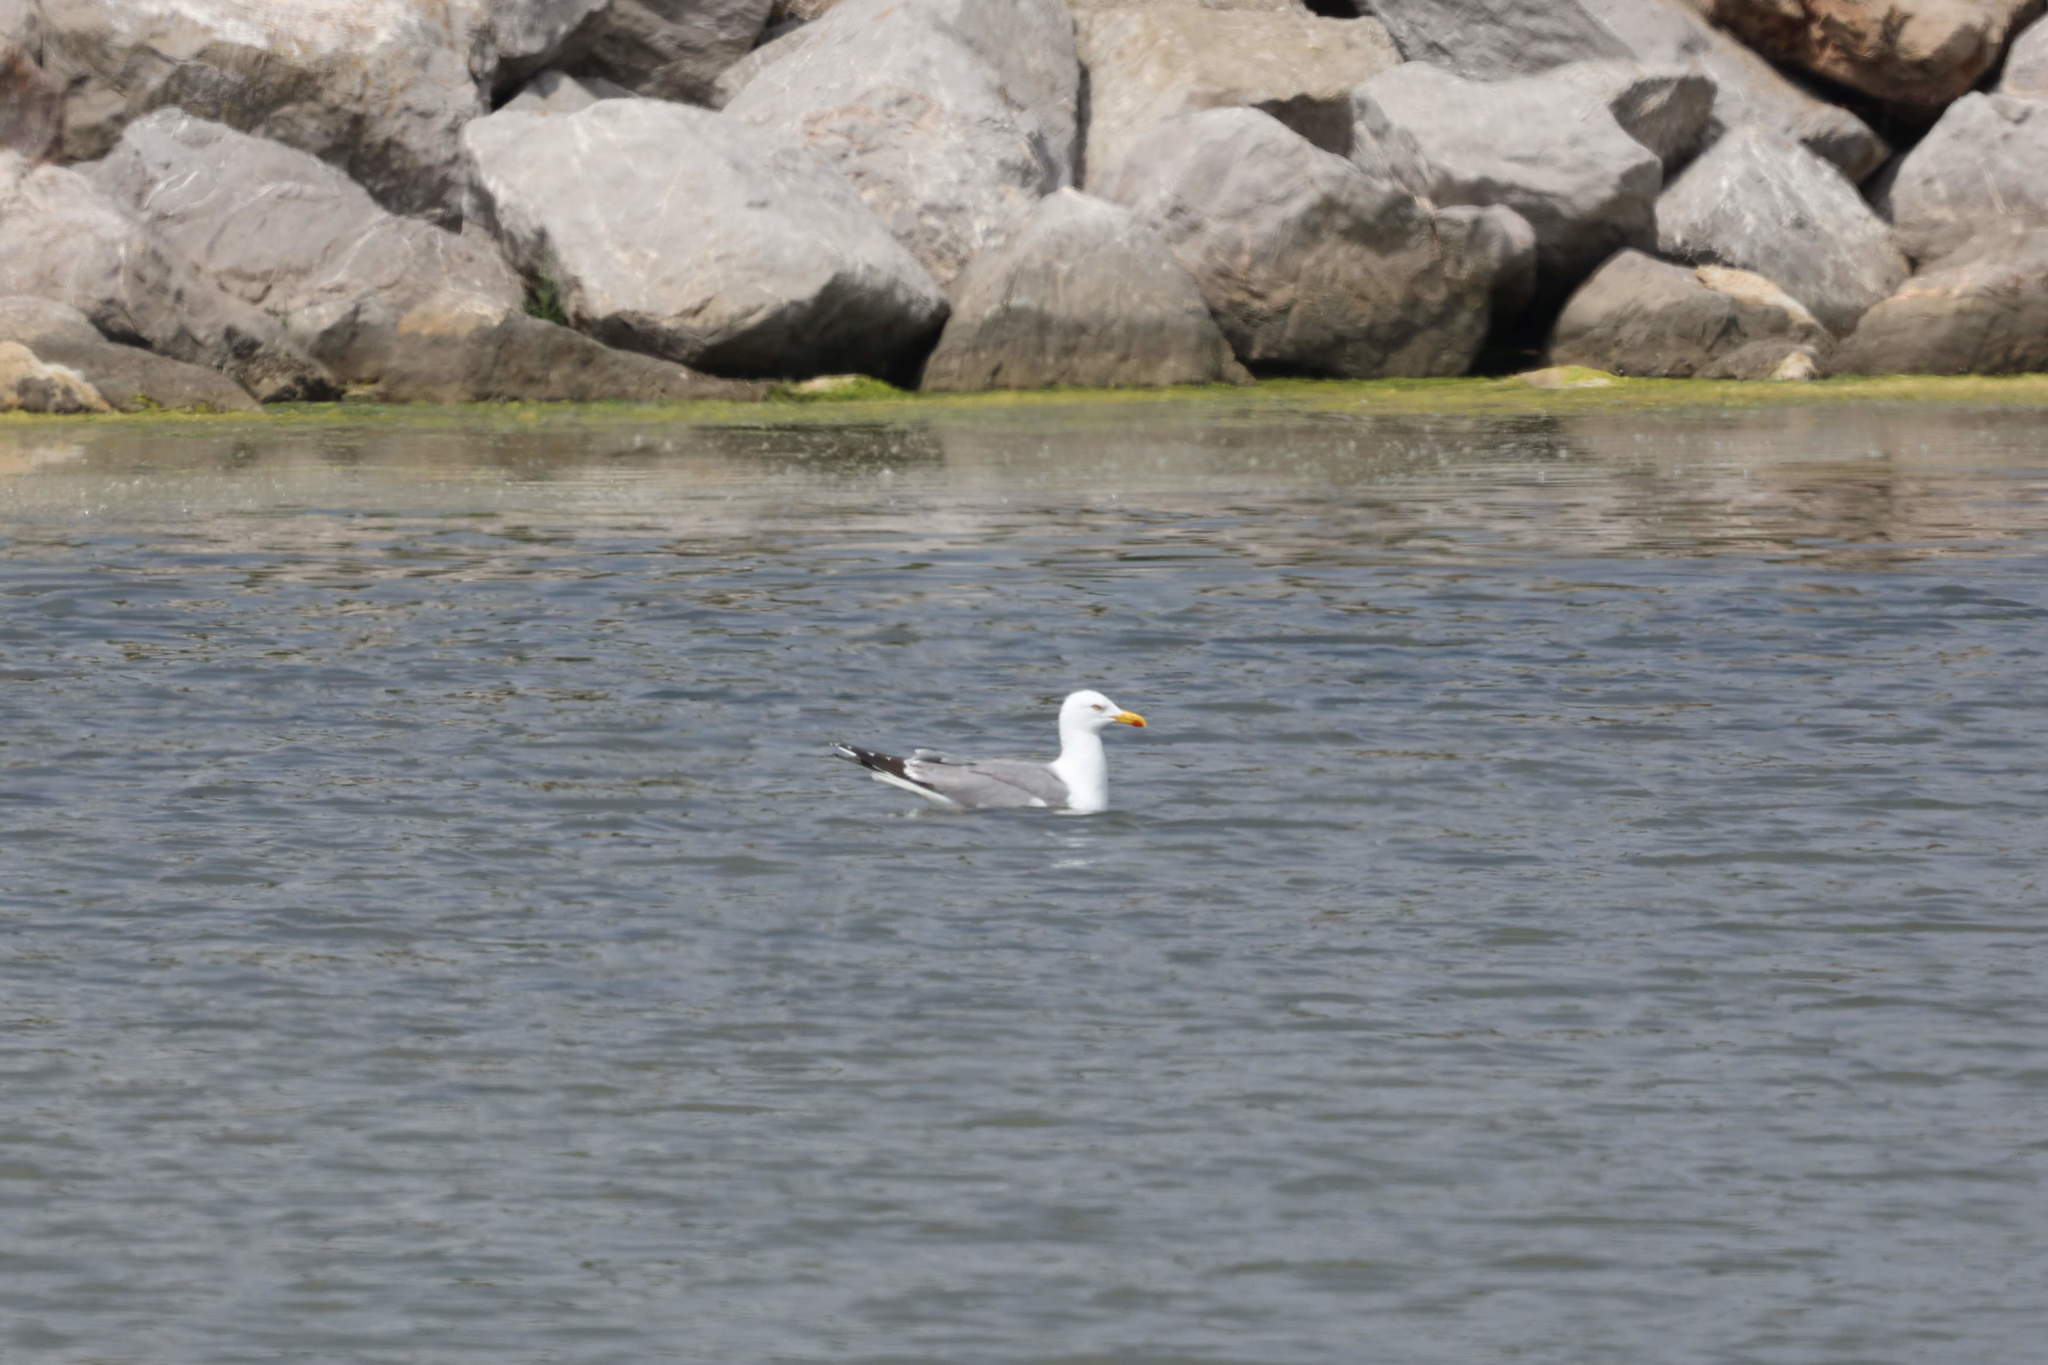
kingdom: Animalia
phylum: Chordata
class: Aves
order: Charadriiformes
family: Laridae
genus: Larus
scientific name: Larus michahellis
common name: Yellow-legged gull
